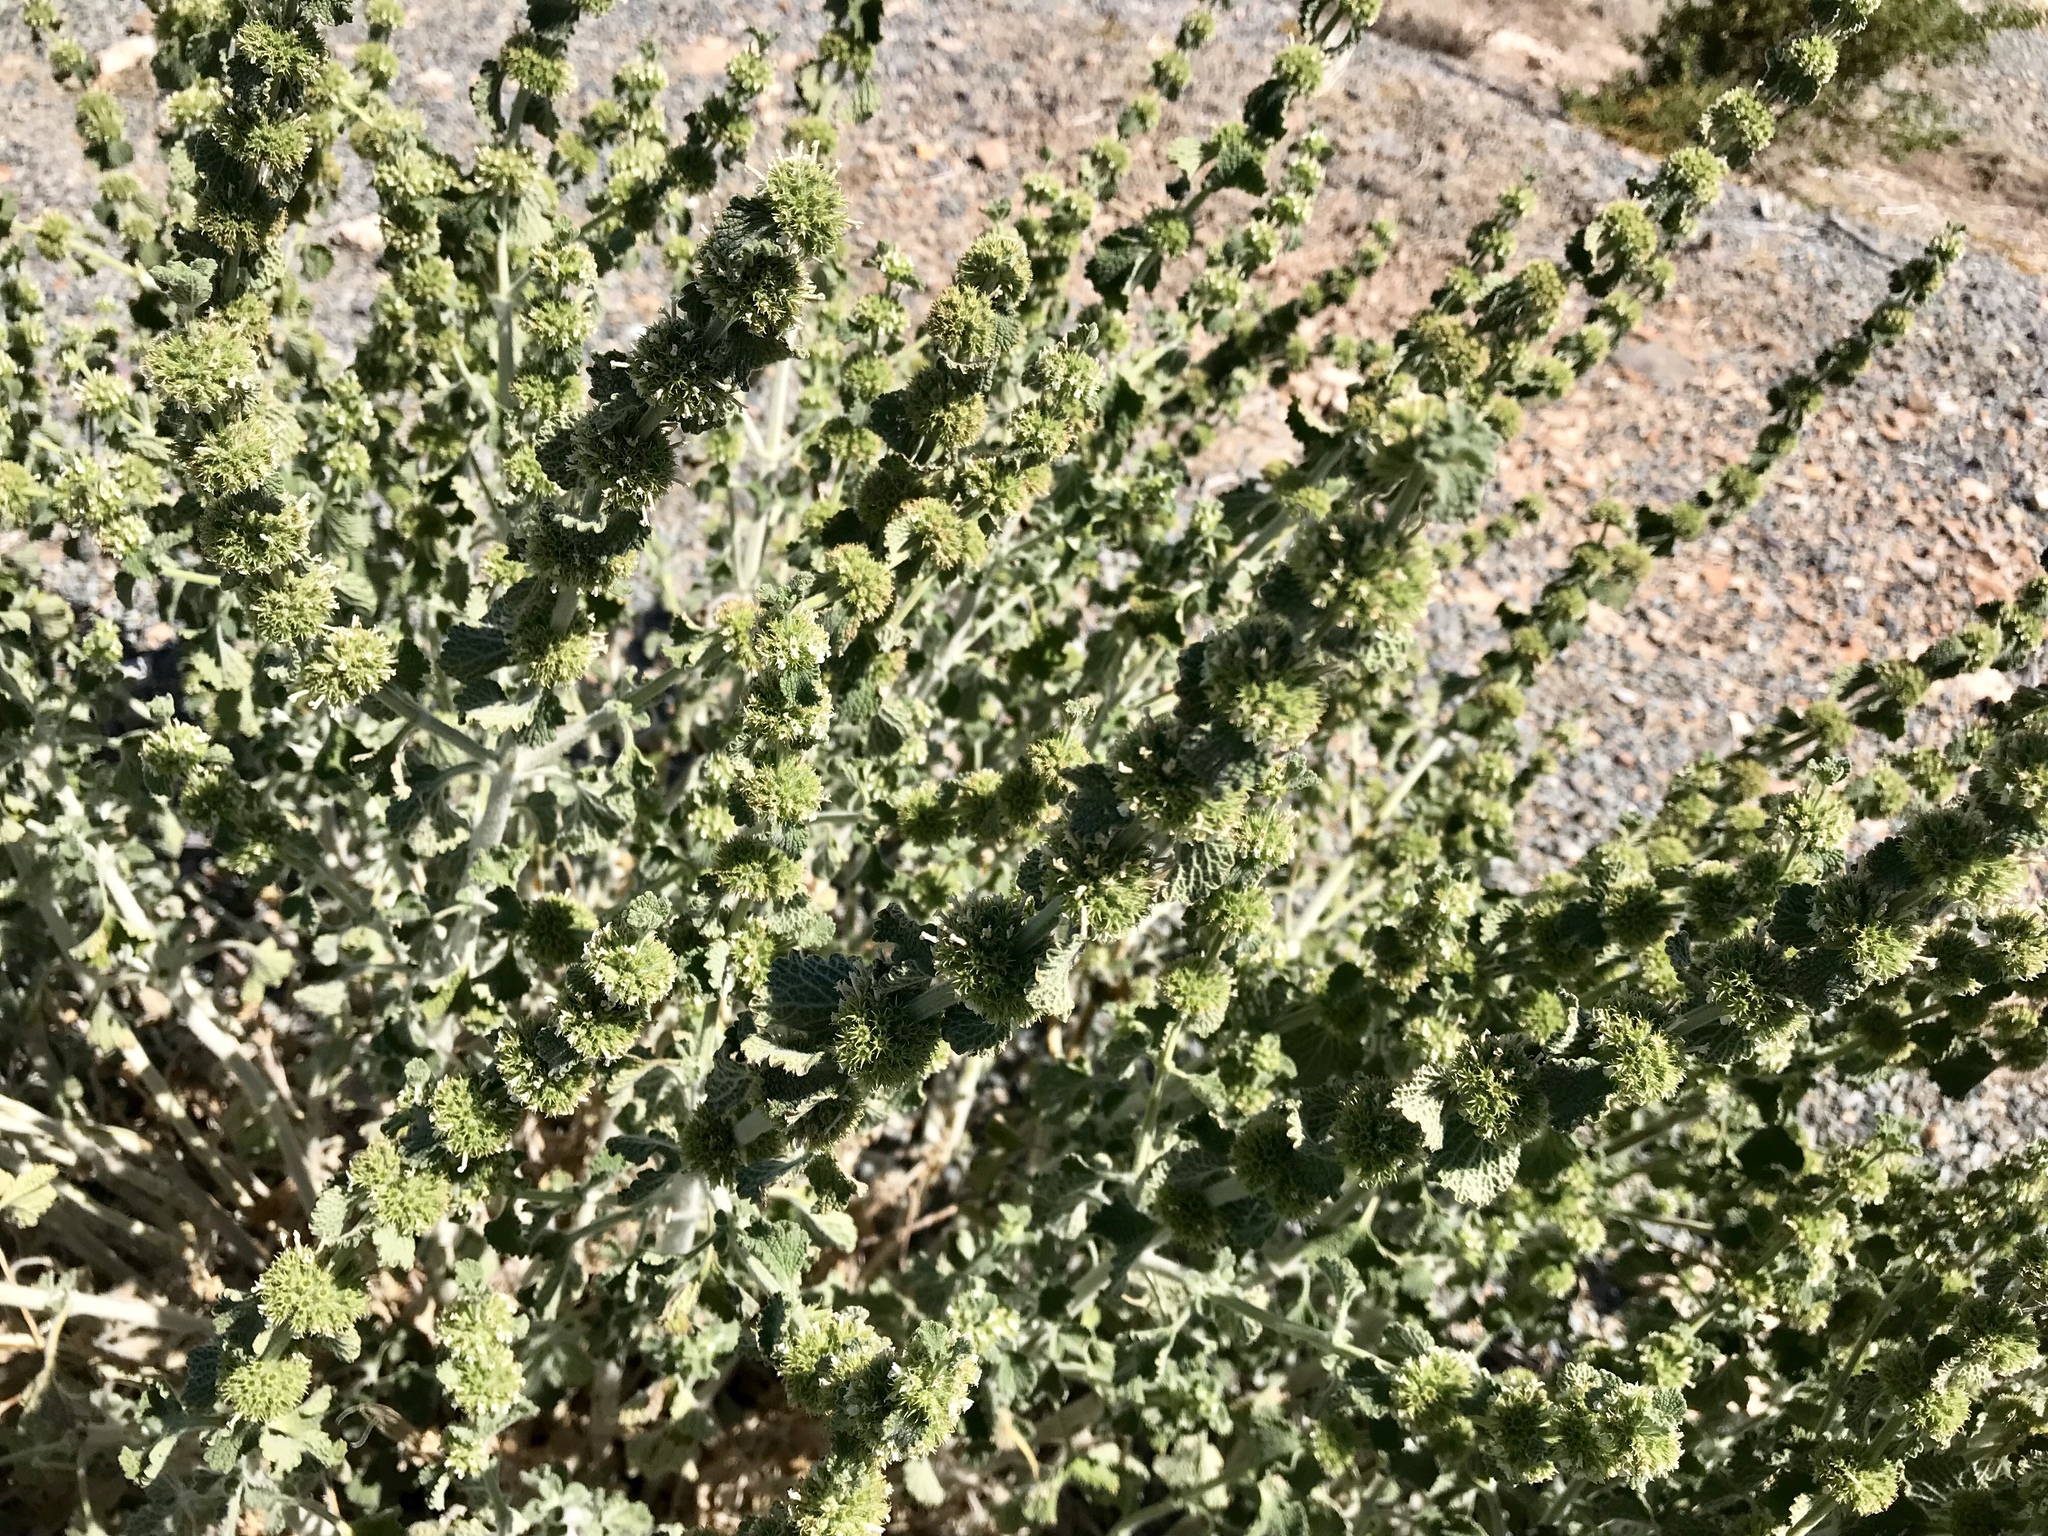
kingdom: Plantae
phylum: Tracheophyta
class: Magnoliopsida
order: Lamiales
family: Lamiaceae
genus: Marrubium
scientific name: Marrubium vulgare
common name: Horehound
